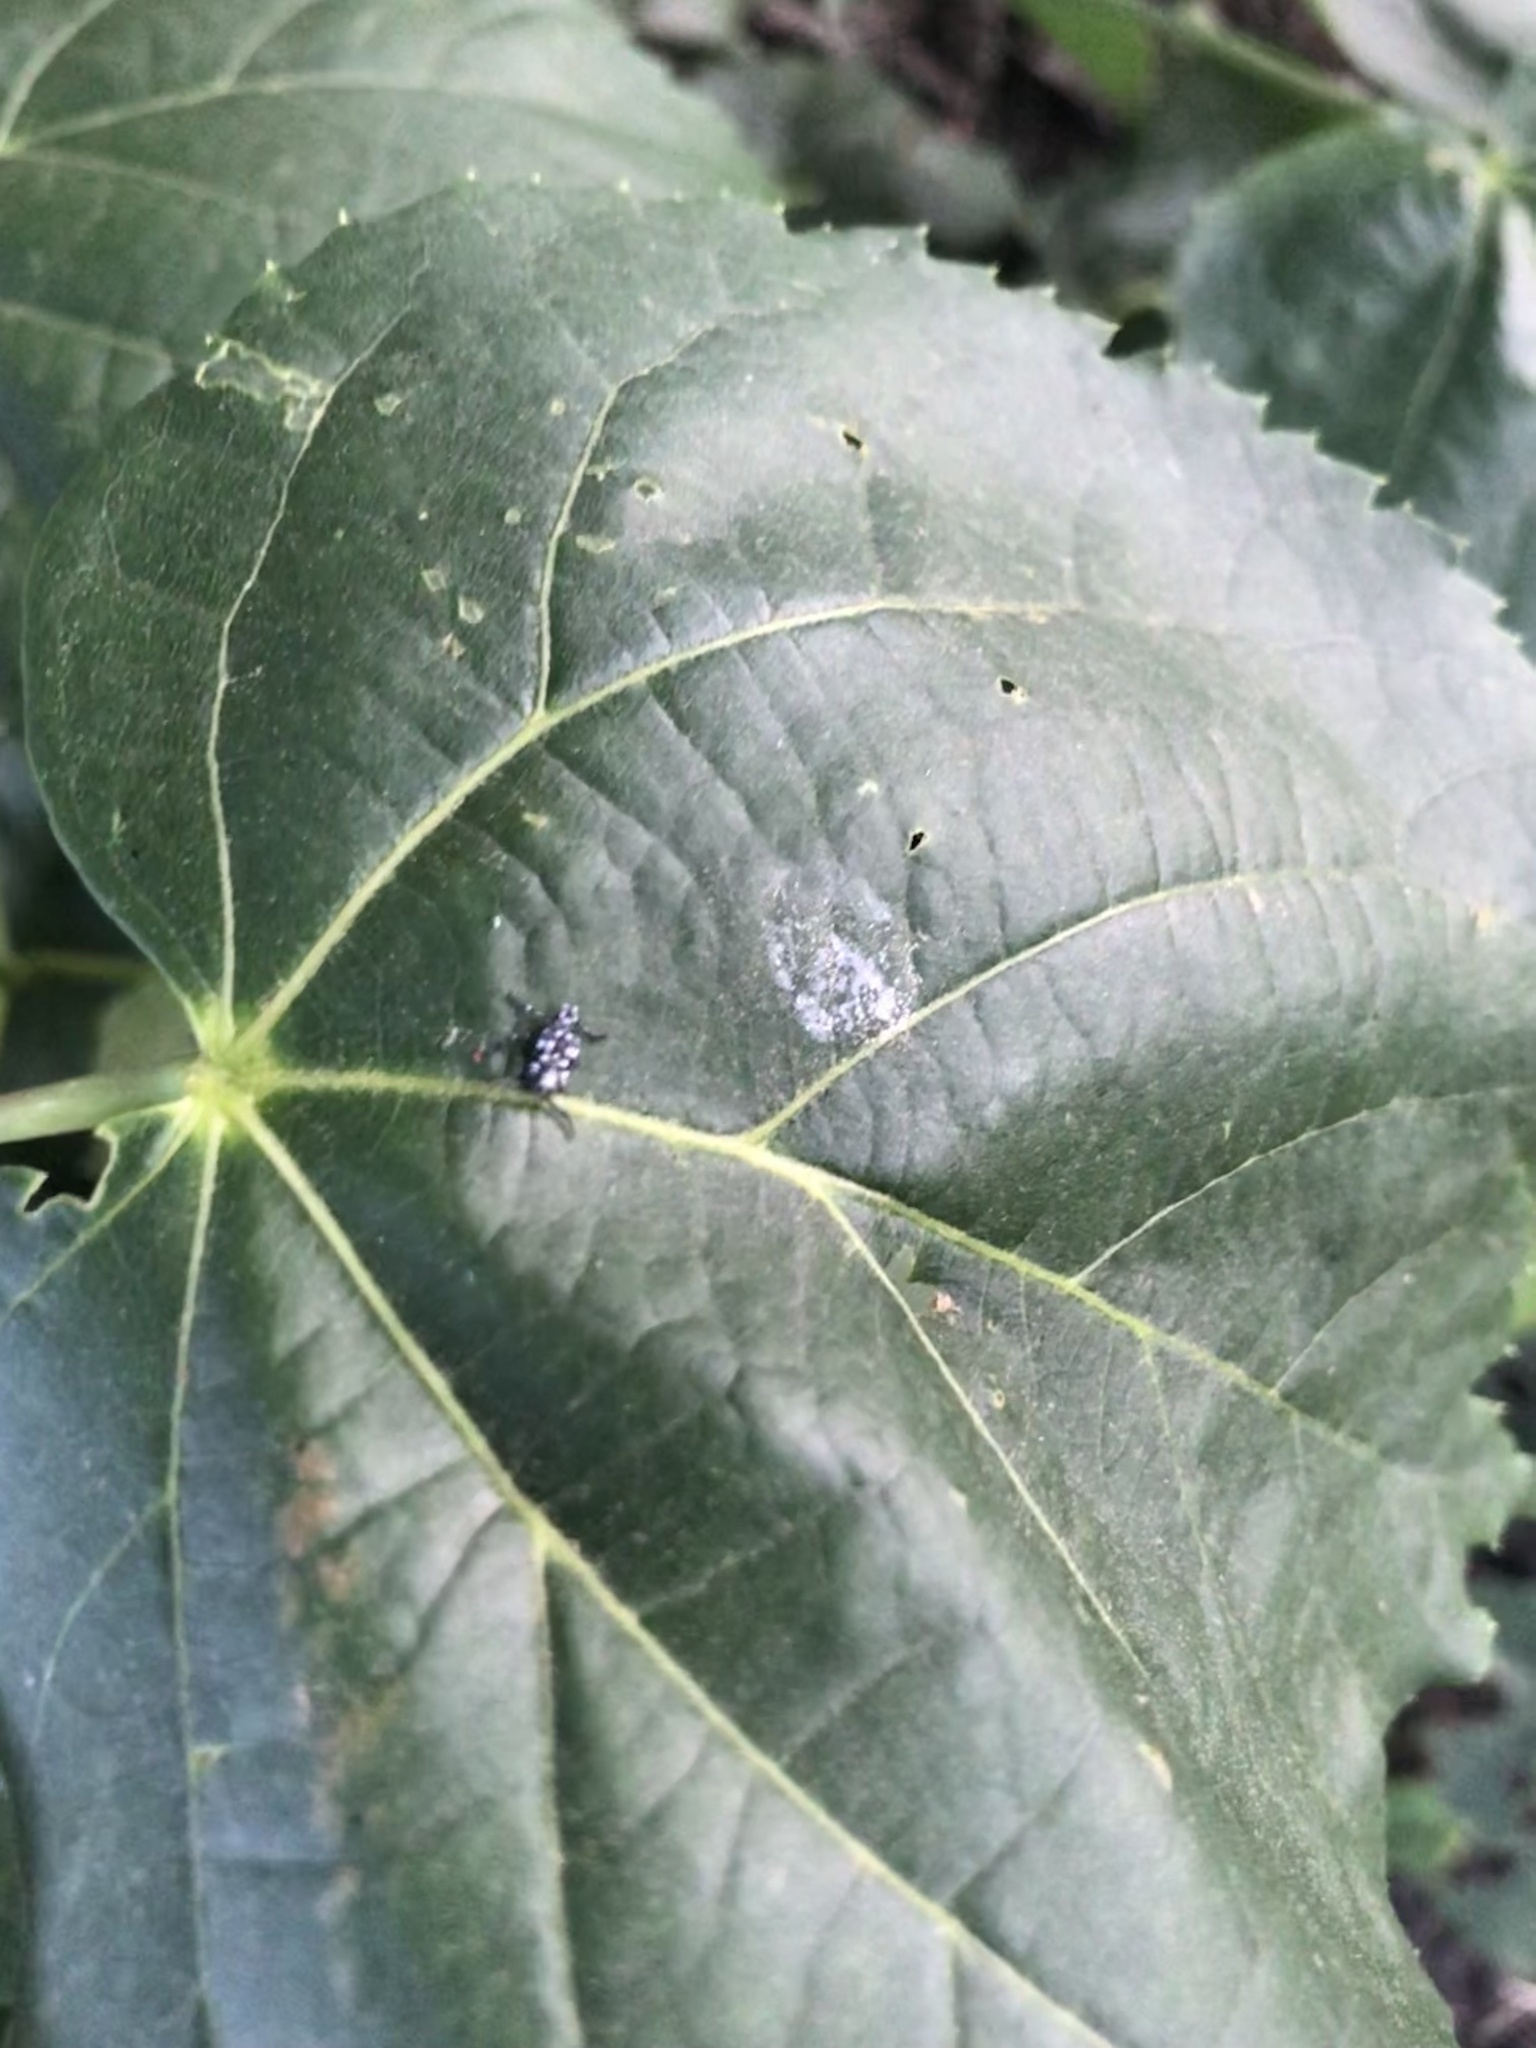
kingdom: Animalia
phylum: Arthropoda
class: Insecta
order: Hemiptera
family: Fulgoridae
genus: Lycorma
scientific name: Lycorma delicatula
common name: Spotted lanternfly
